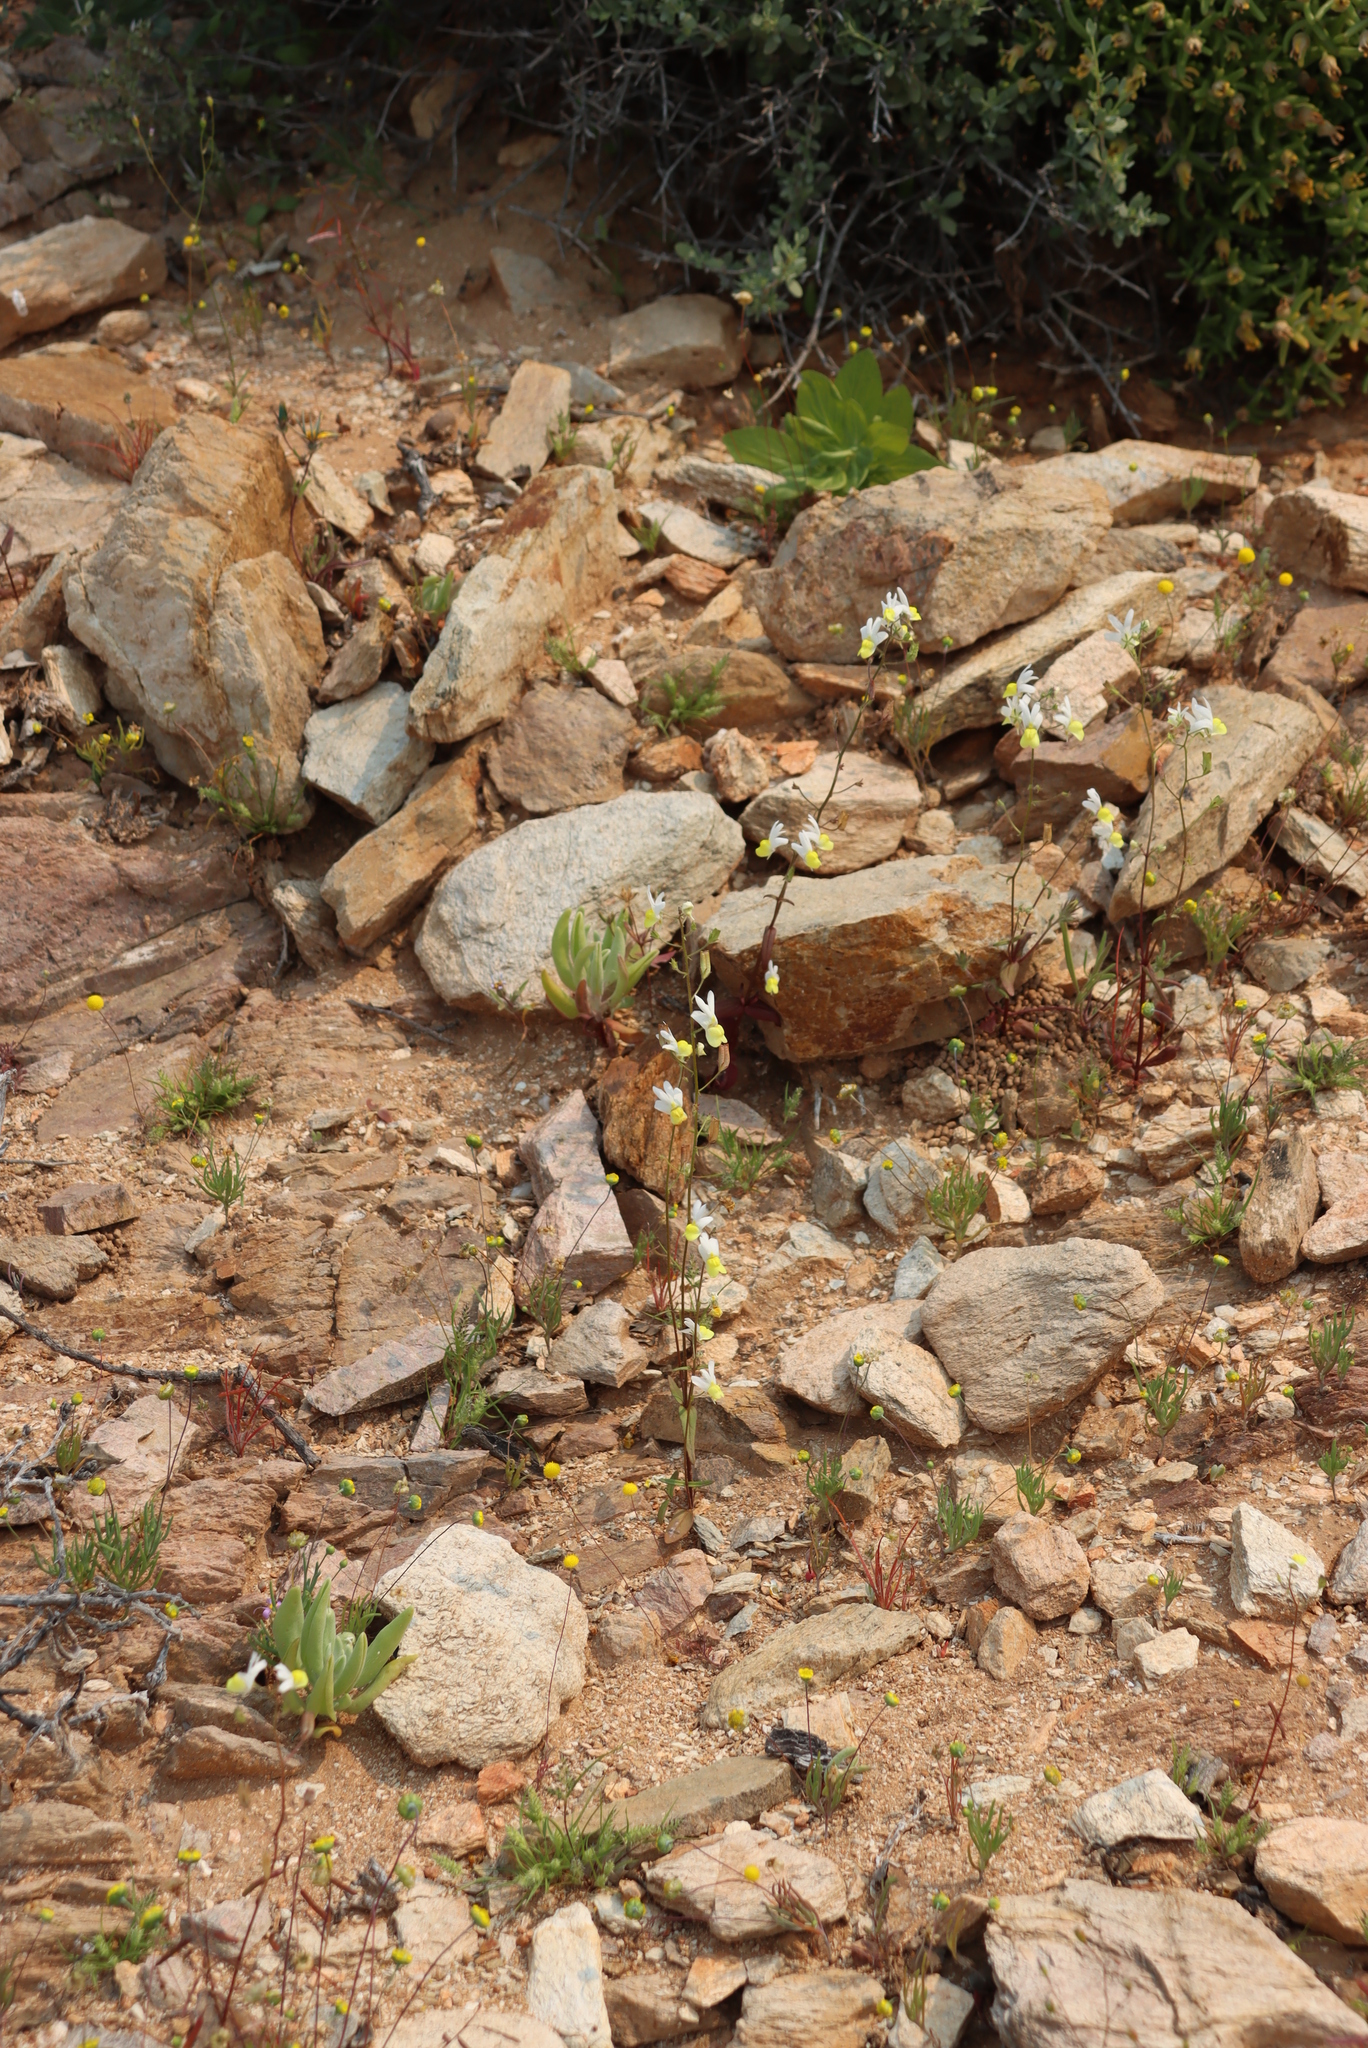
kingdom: Plantae
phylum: Tracheophyta
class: Magnoliopsida
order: Asterales
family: Asteraceae
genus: Adenoglossa
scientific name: Adenoglossa decurrens
